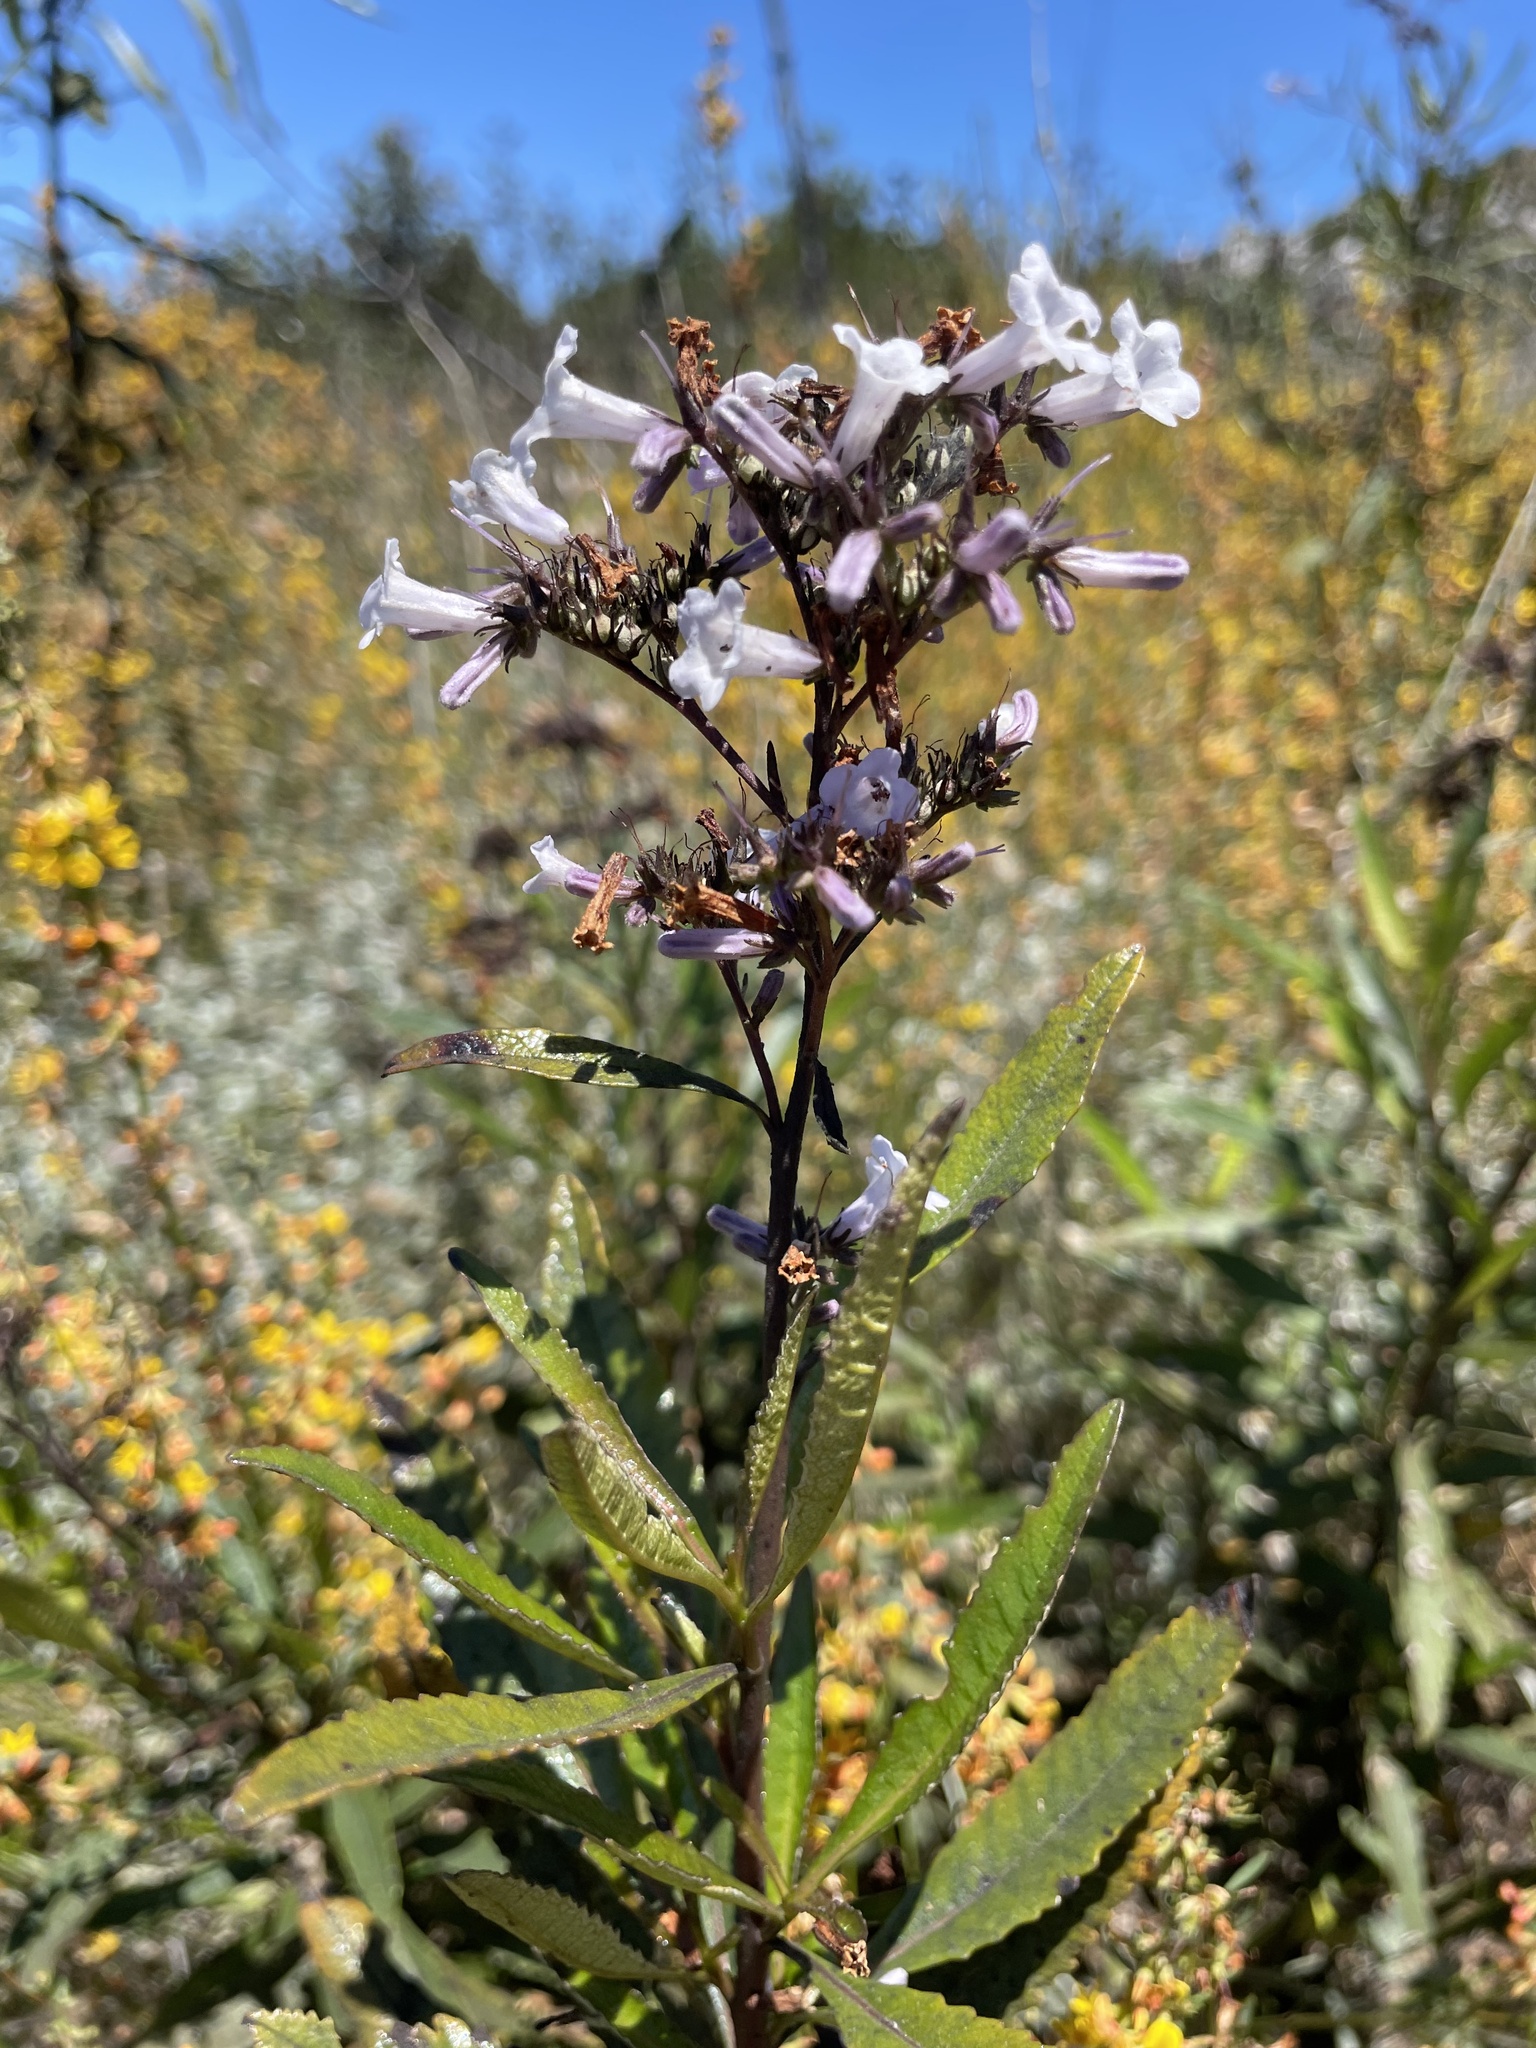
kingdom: Plantae
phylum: Tracheophyta
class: Magnoliopsida
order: Boraginales
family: Namaceae
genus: Eriodictyon
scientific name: Eriodictyon californicum
